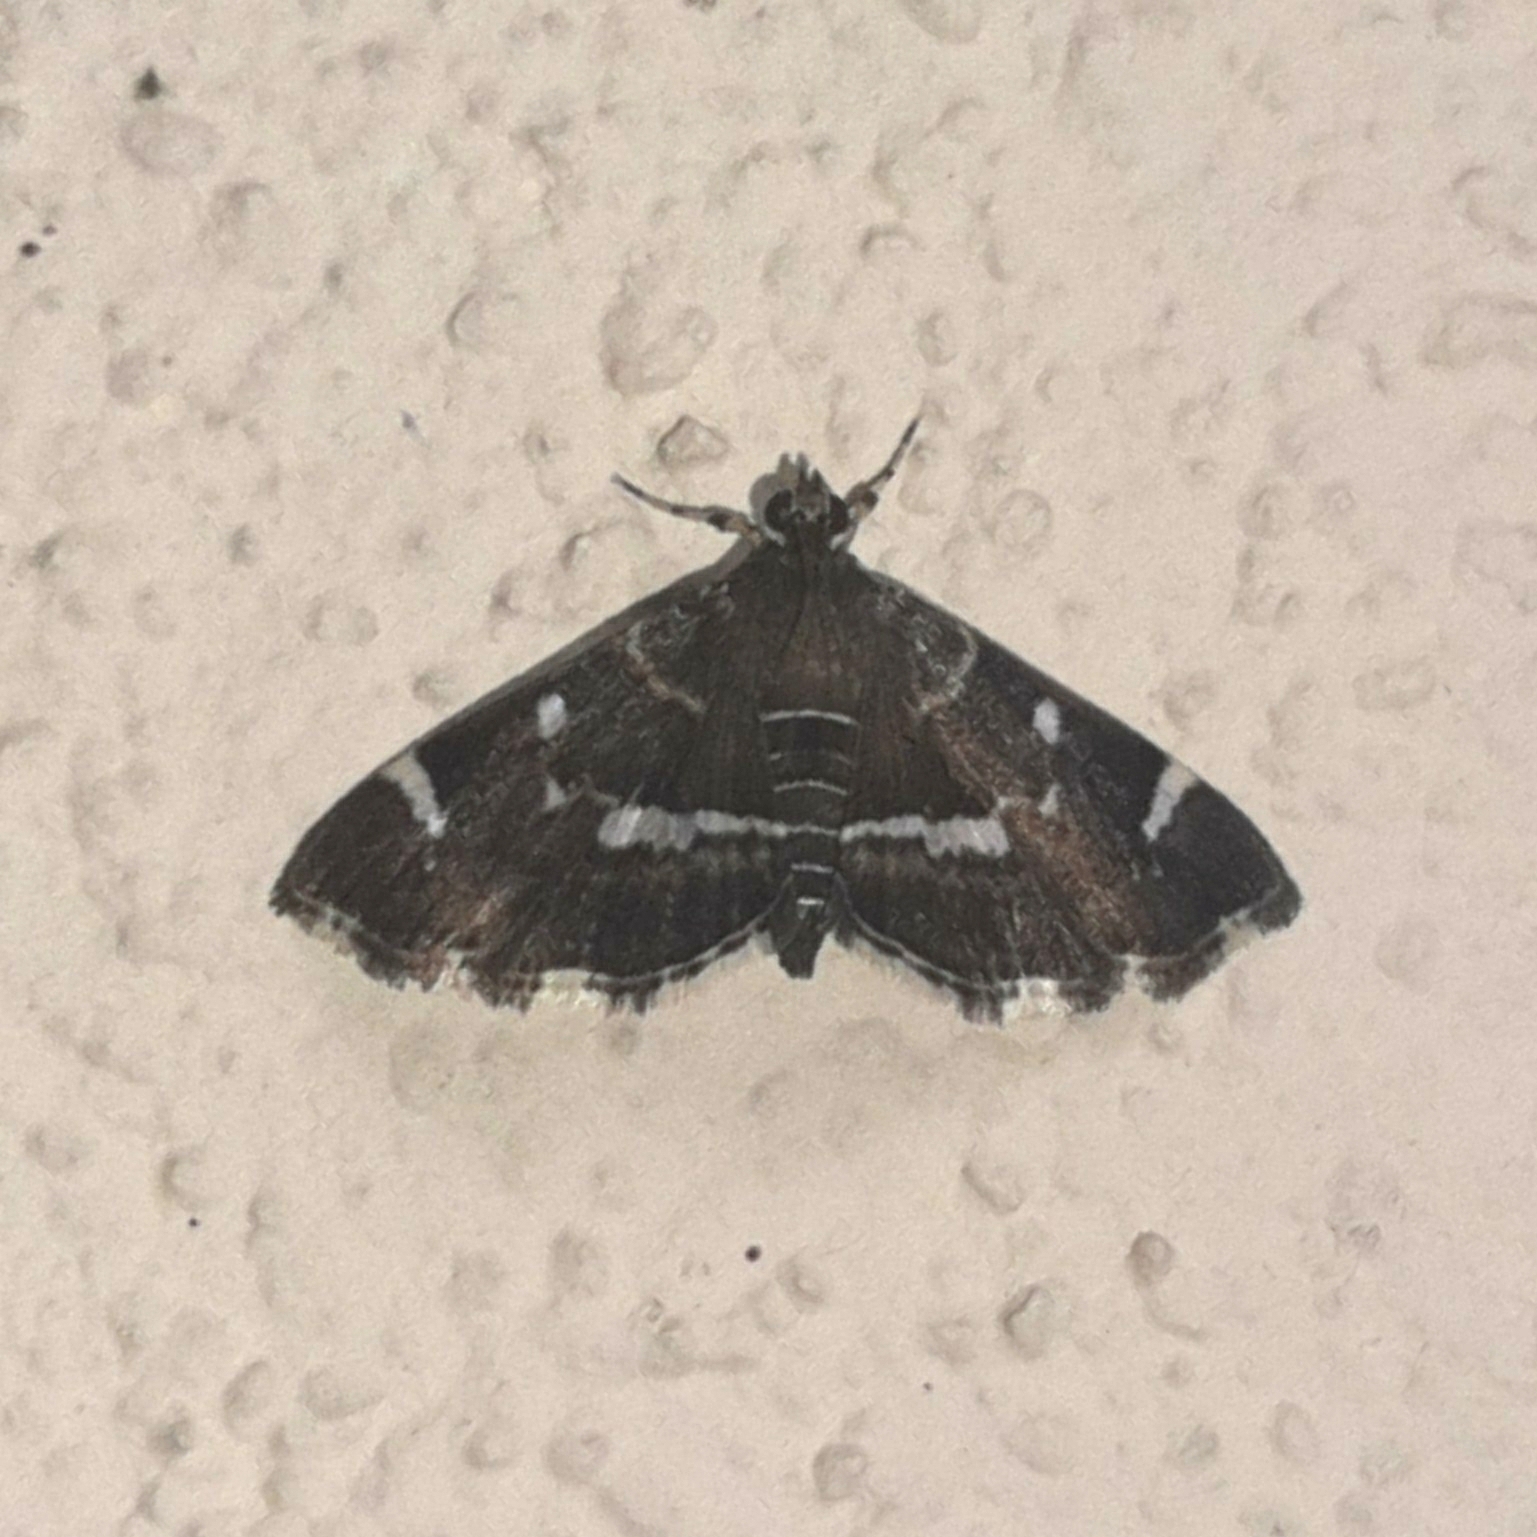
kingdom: Animalia
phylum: Arthropoda
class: Insecta
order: Lepidoptera
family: Crambidae
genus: Hymenia
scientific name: Hymenia perspectalis
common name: Spotted beet webworm
